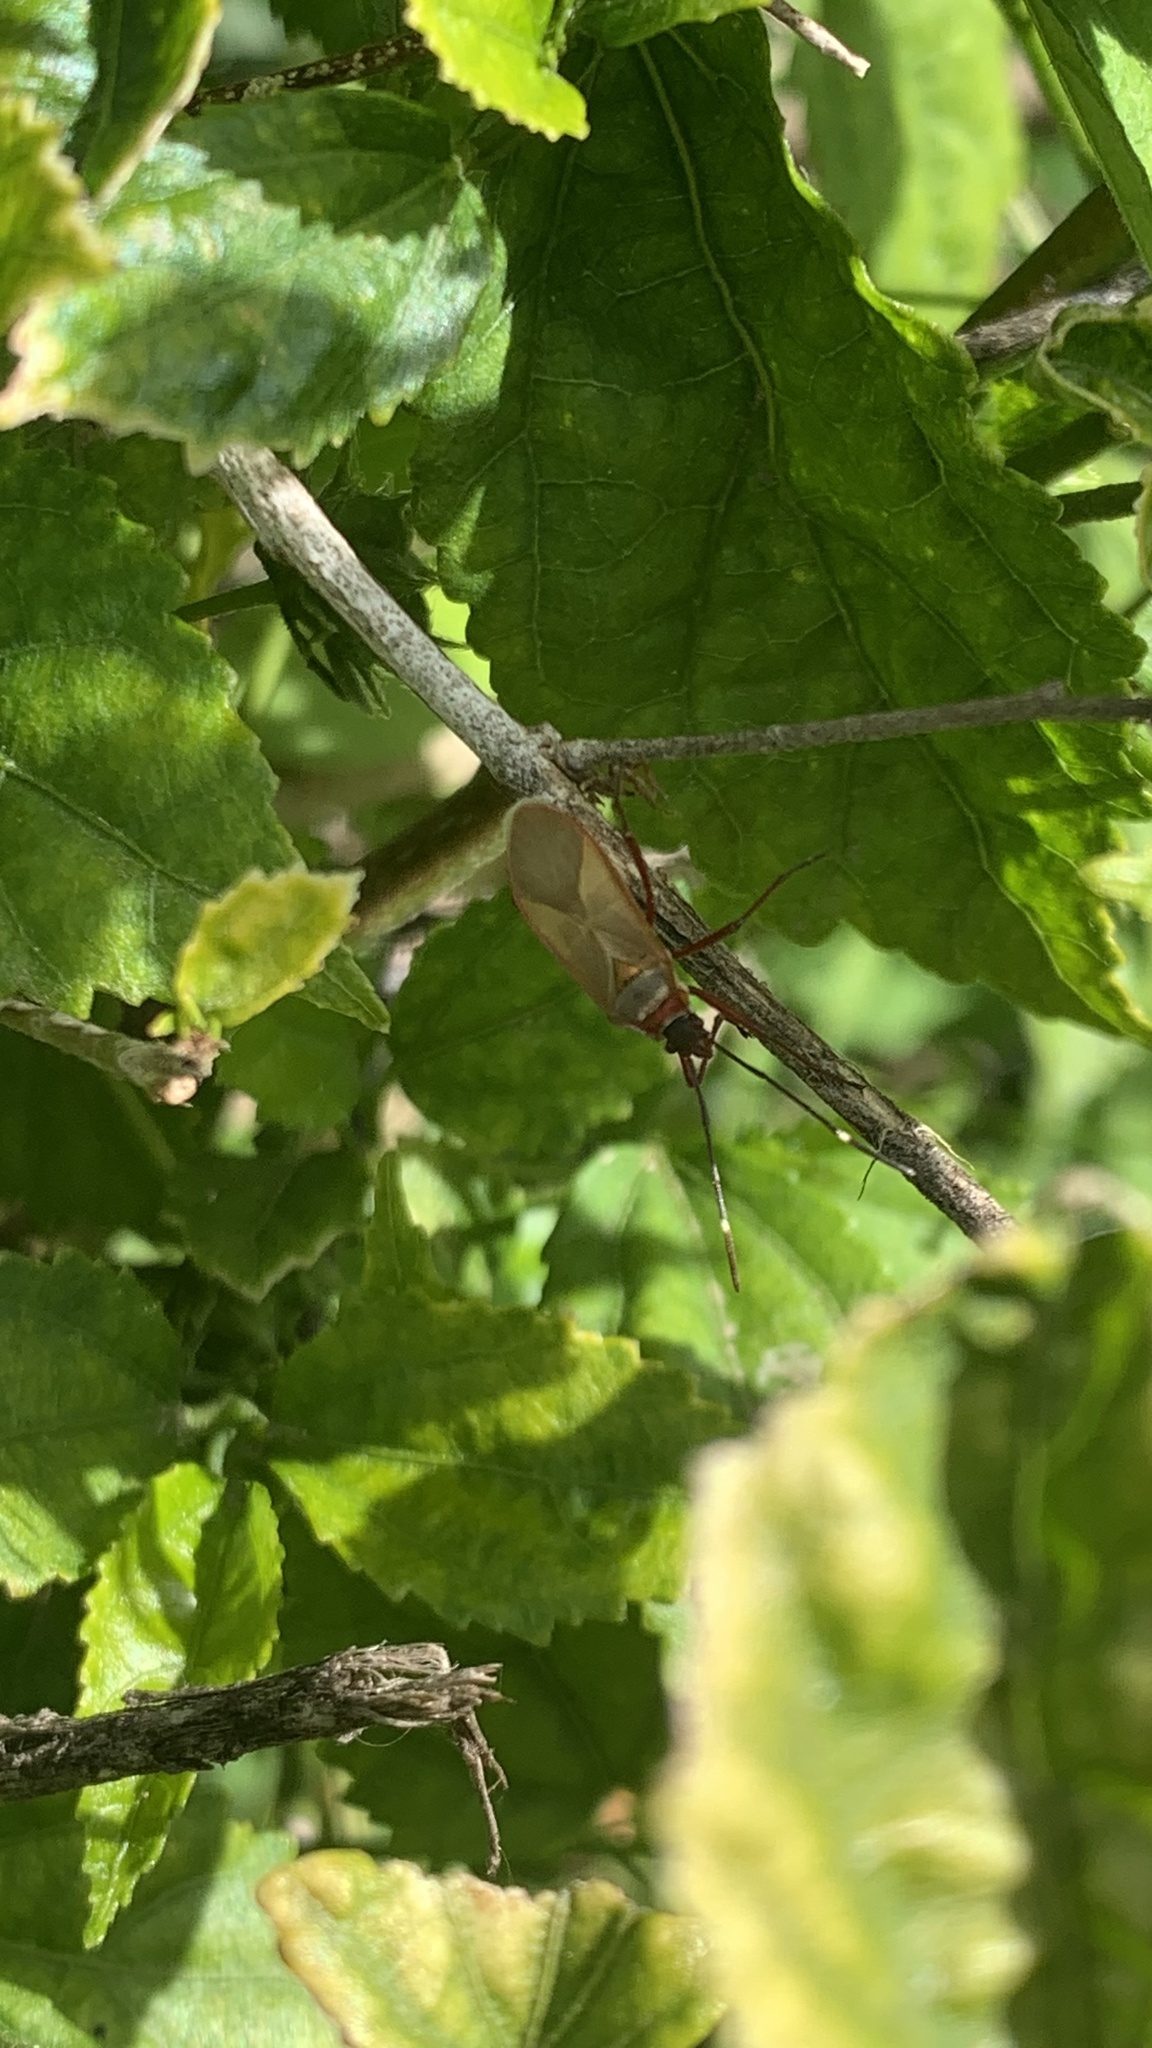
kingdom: Animalia
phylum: Arthropoda
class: Insecta
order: Hemiptera
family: Pyrrhocoridae
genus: Dysdercus
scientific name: Dysdercus
